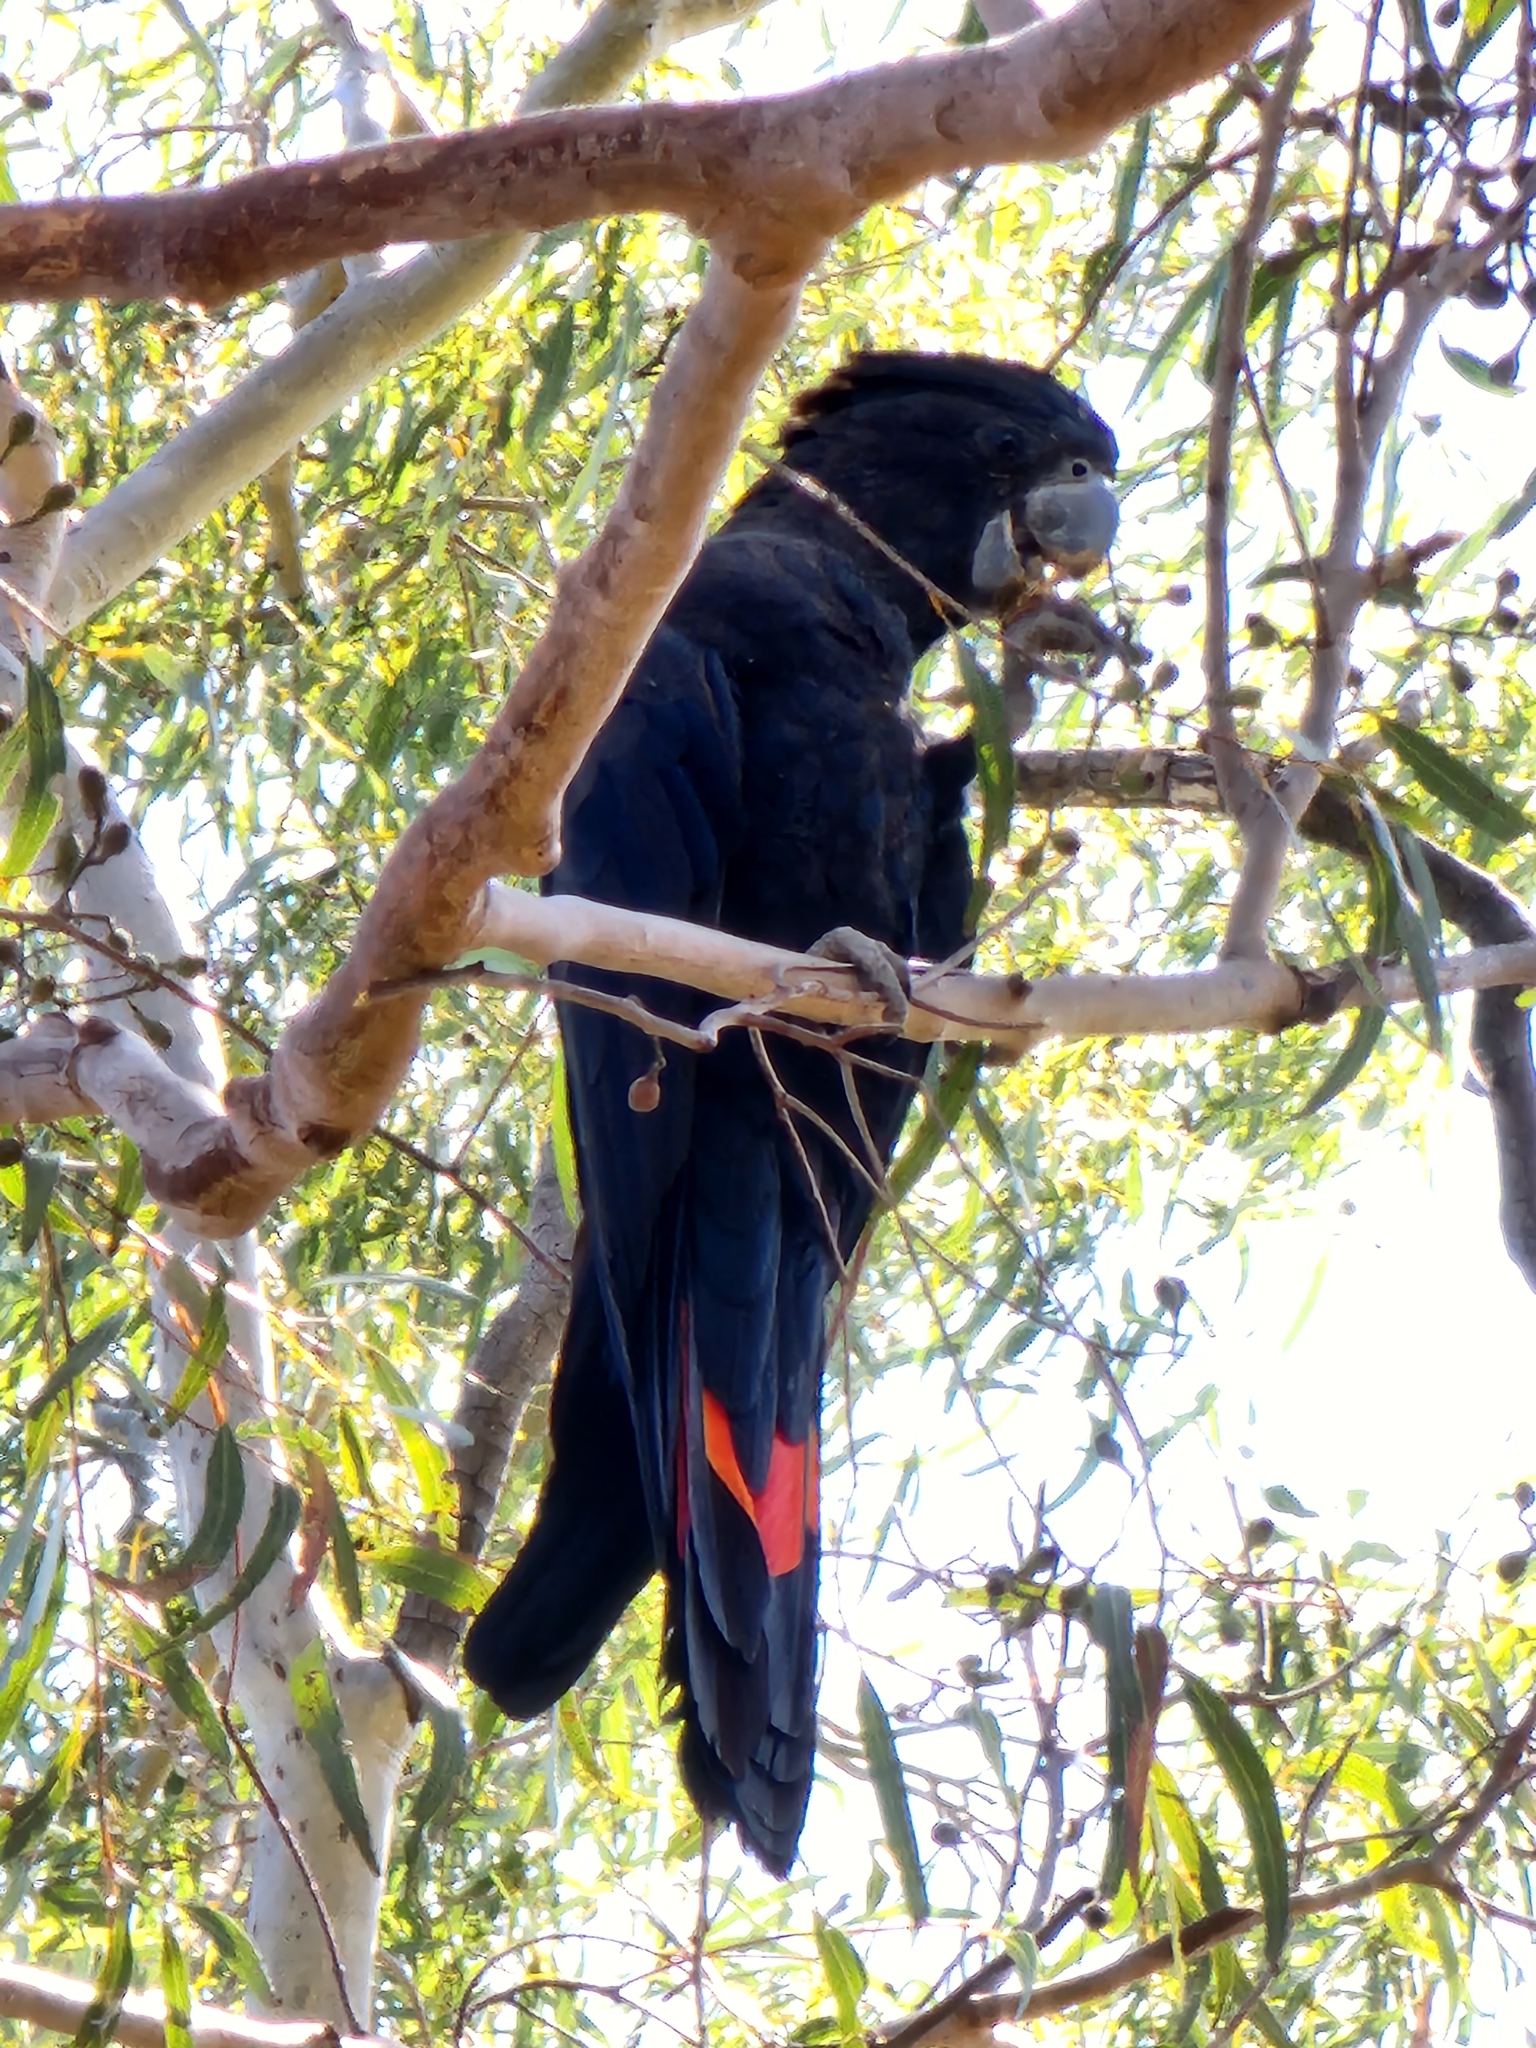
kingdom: Animalia
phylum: Chordata
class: Aves
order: Psittaciformes
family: Psittacidae
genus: Calyptorhynchus
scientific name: Calyptorhynchus banksii
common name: Red-tailed black cockatoo
